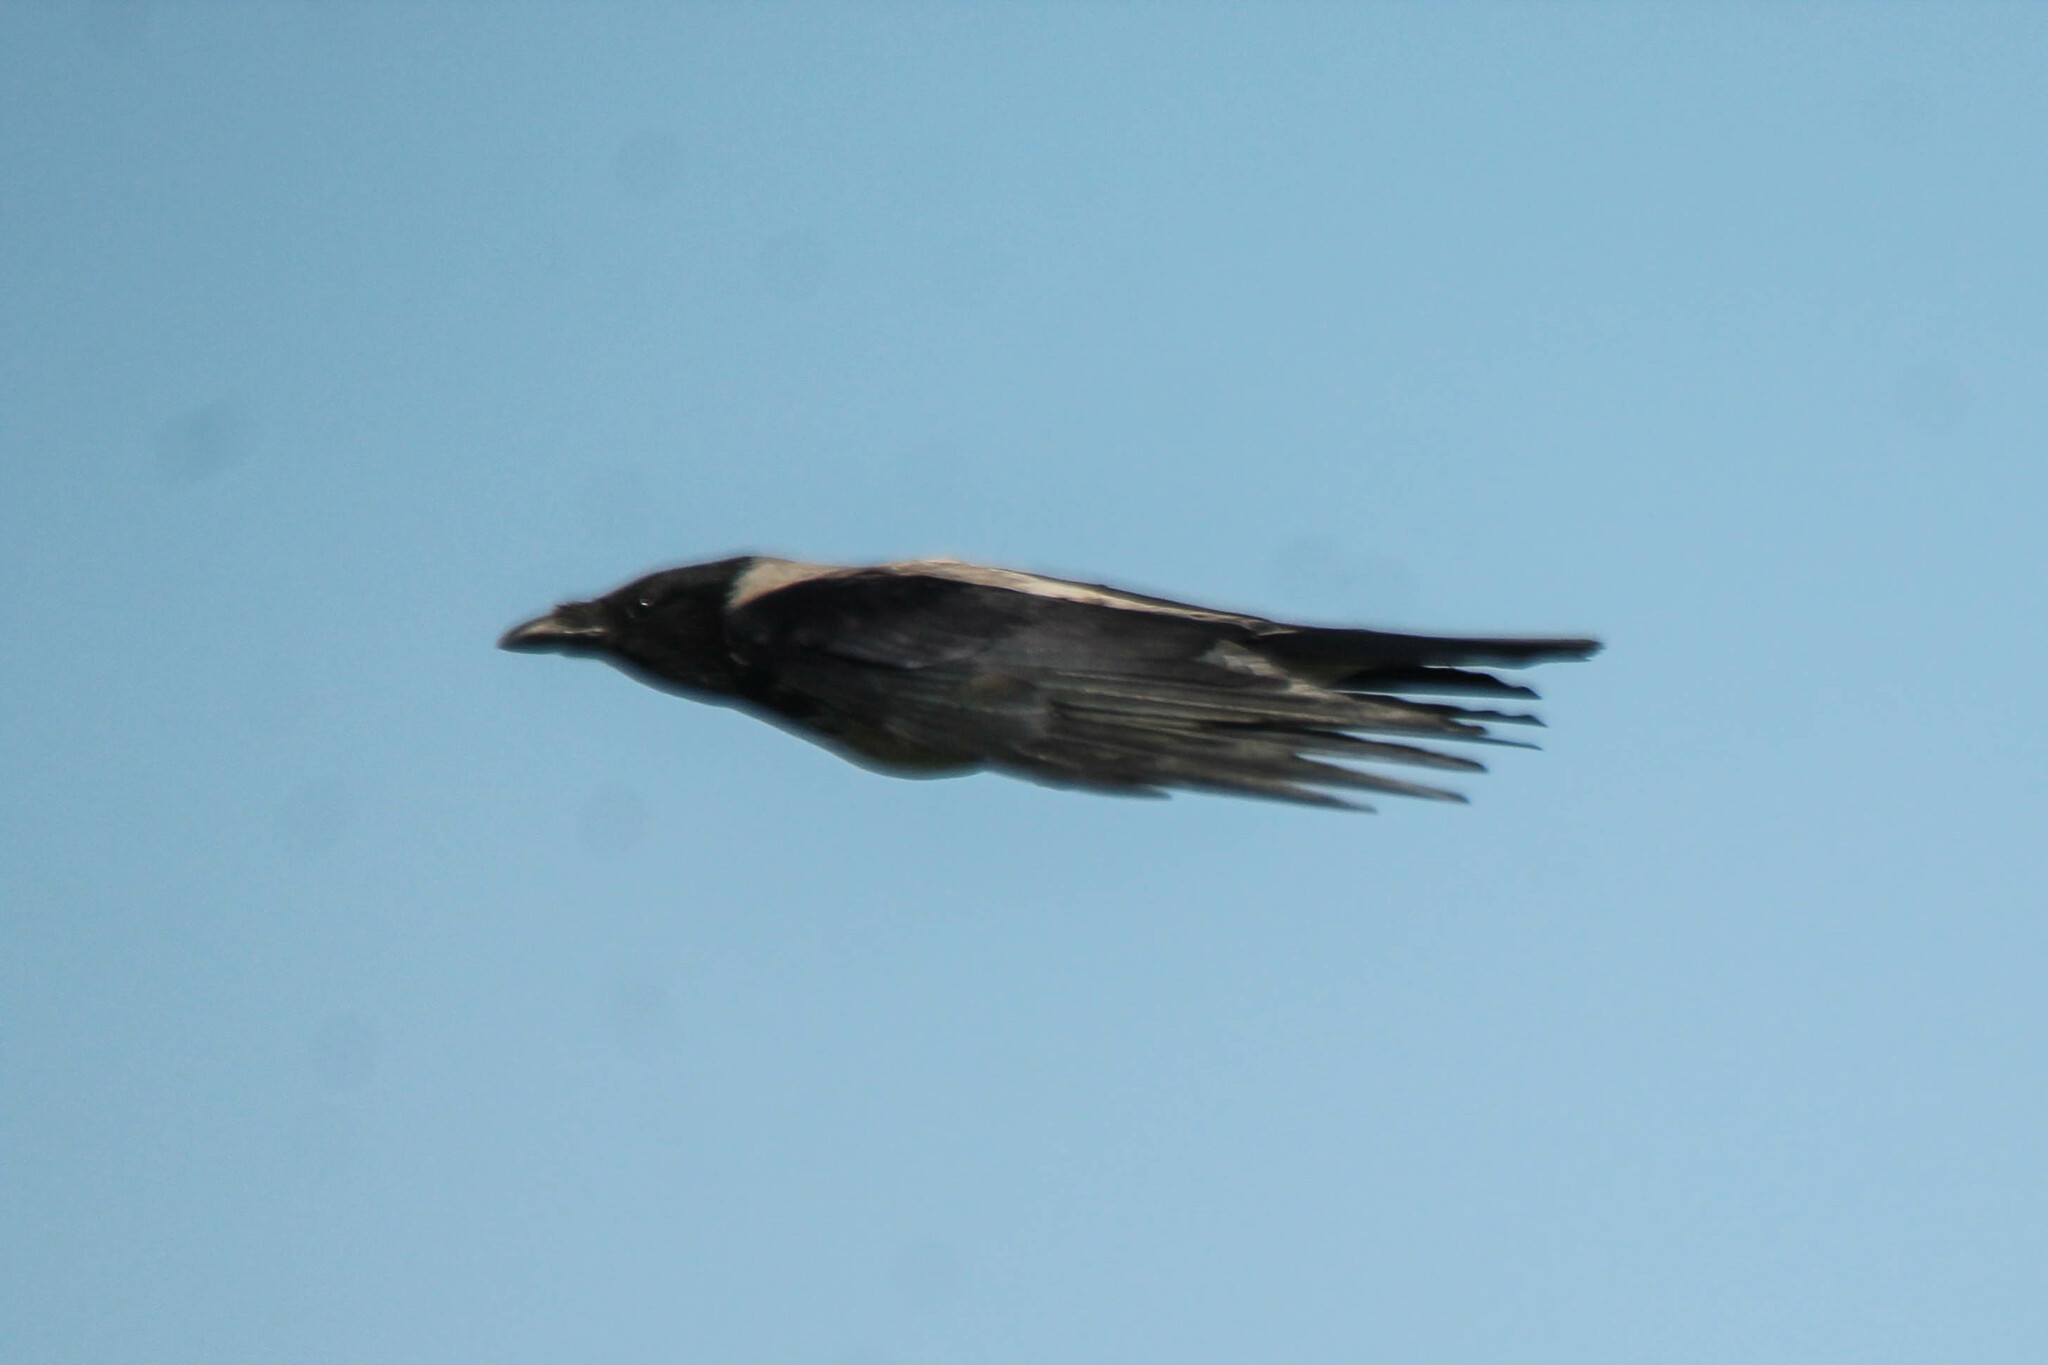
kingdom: Animalia
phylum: Chordata
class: Aves
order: Passeriformes
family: Corvidae
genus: Corvus
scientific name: Corvus cornix
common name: Hooded crow
